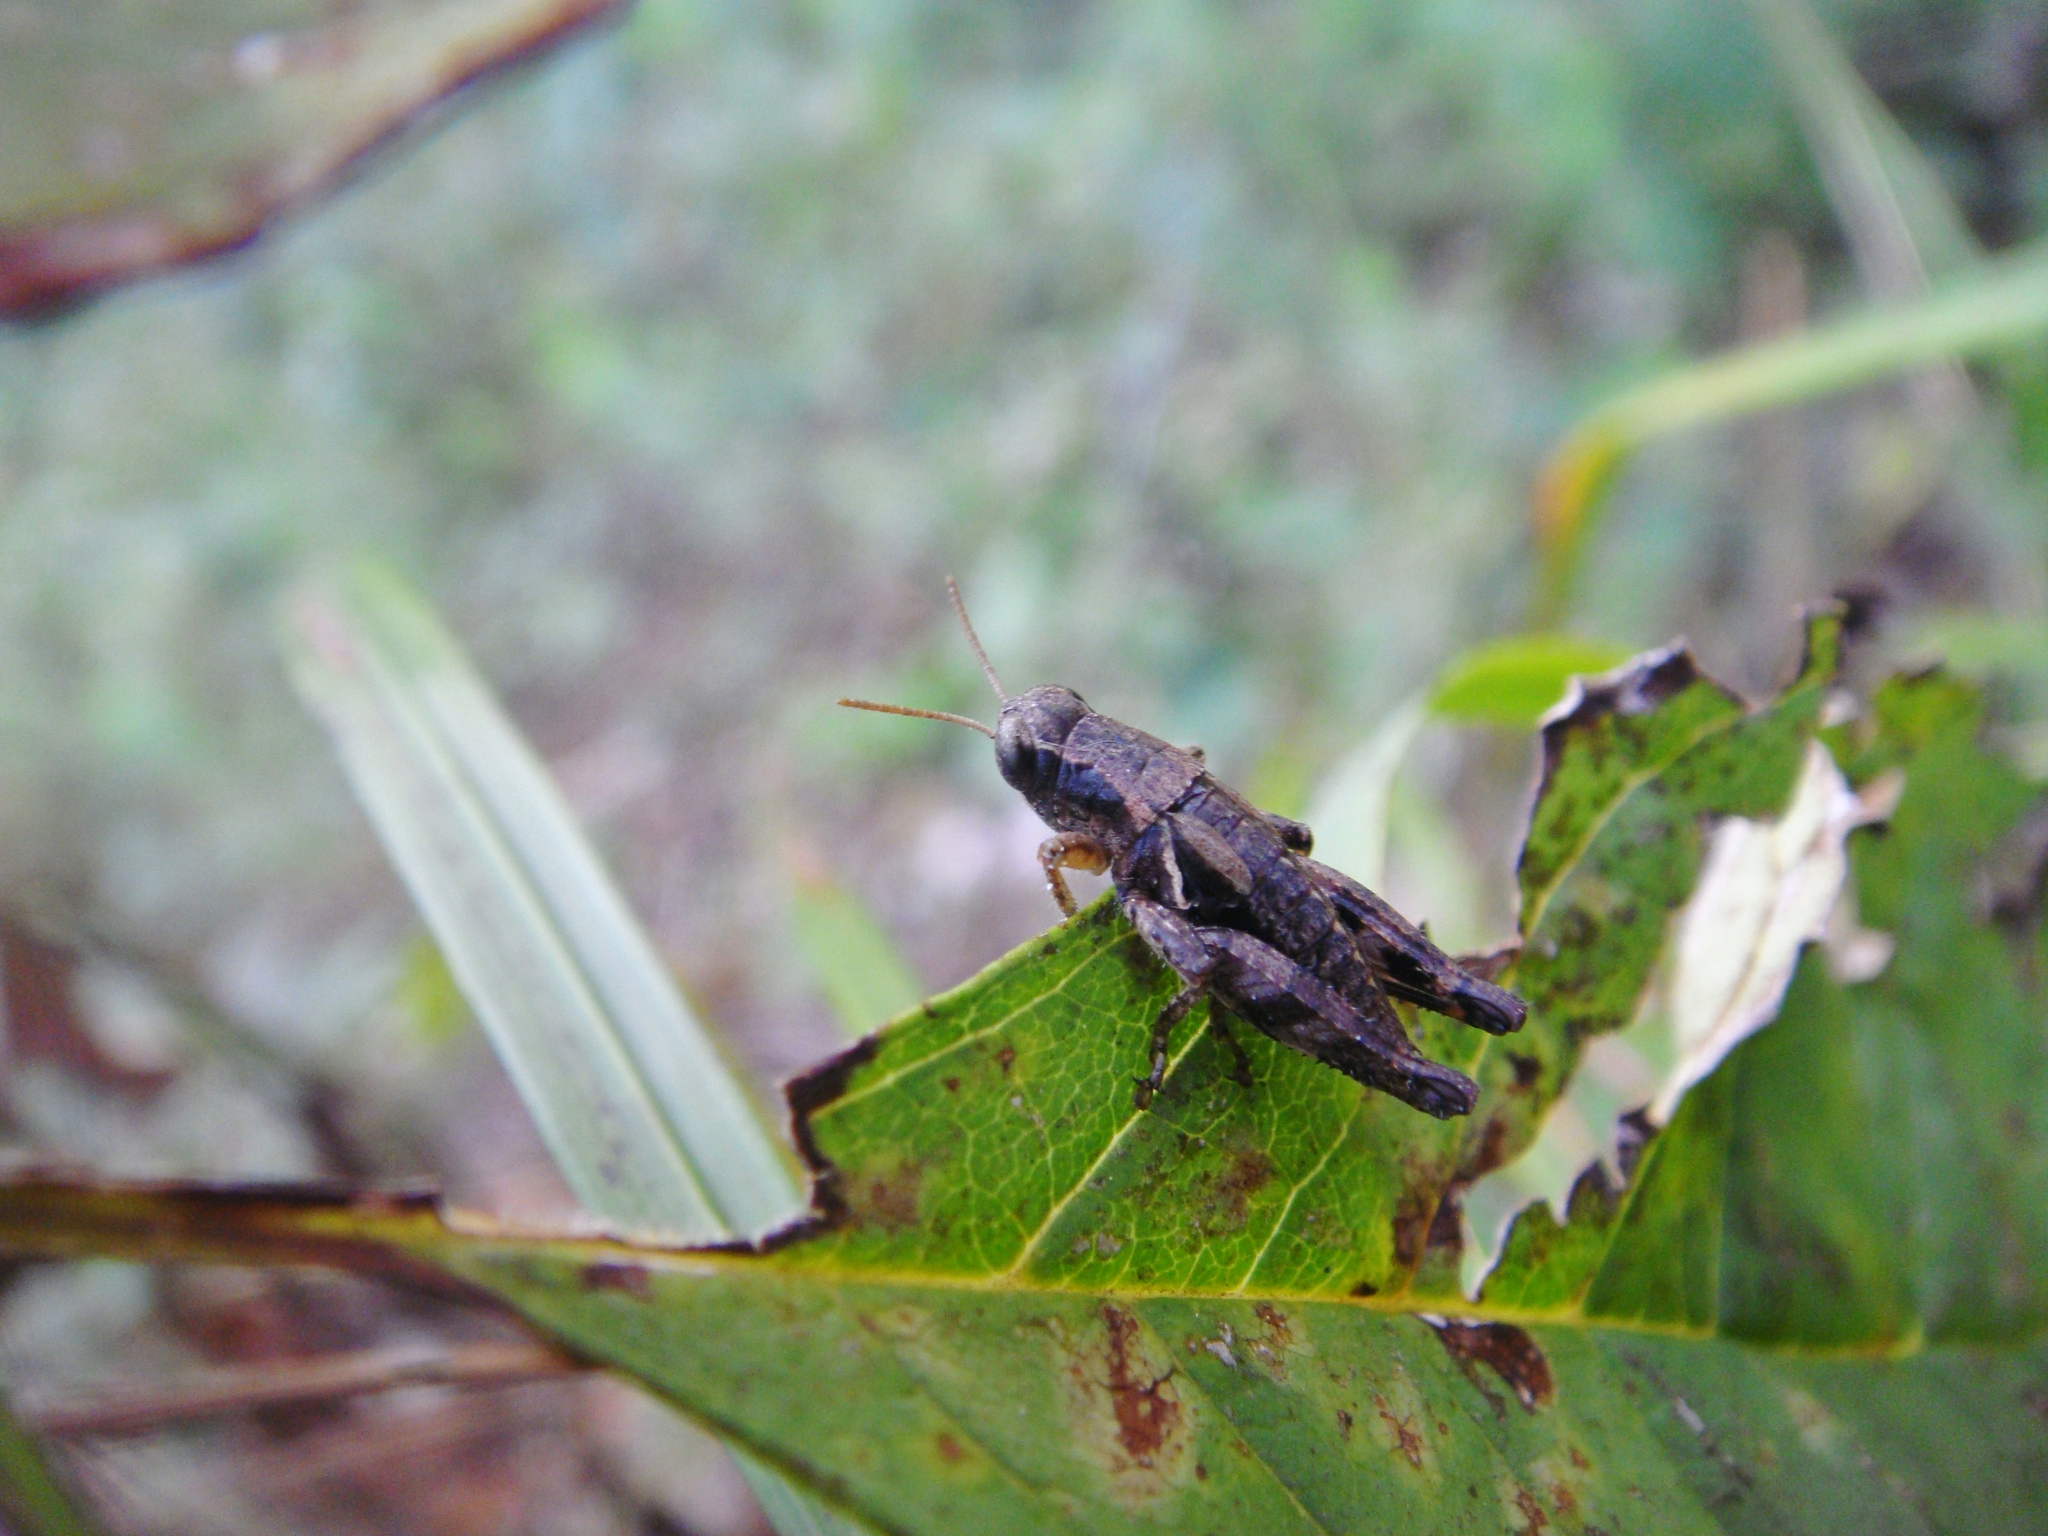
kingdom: Animalia
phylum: Arthropoda
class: Insecta
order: Orthoptera
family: Acrididae
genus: Pezotettix
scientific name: Pezotettix giornae
